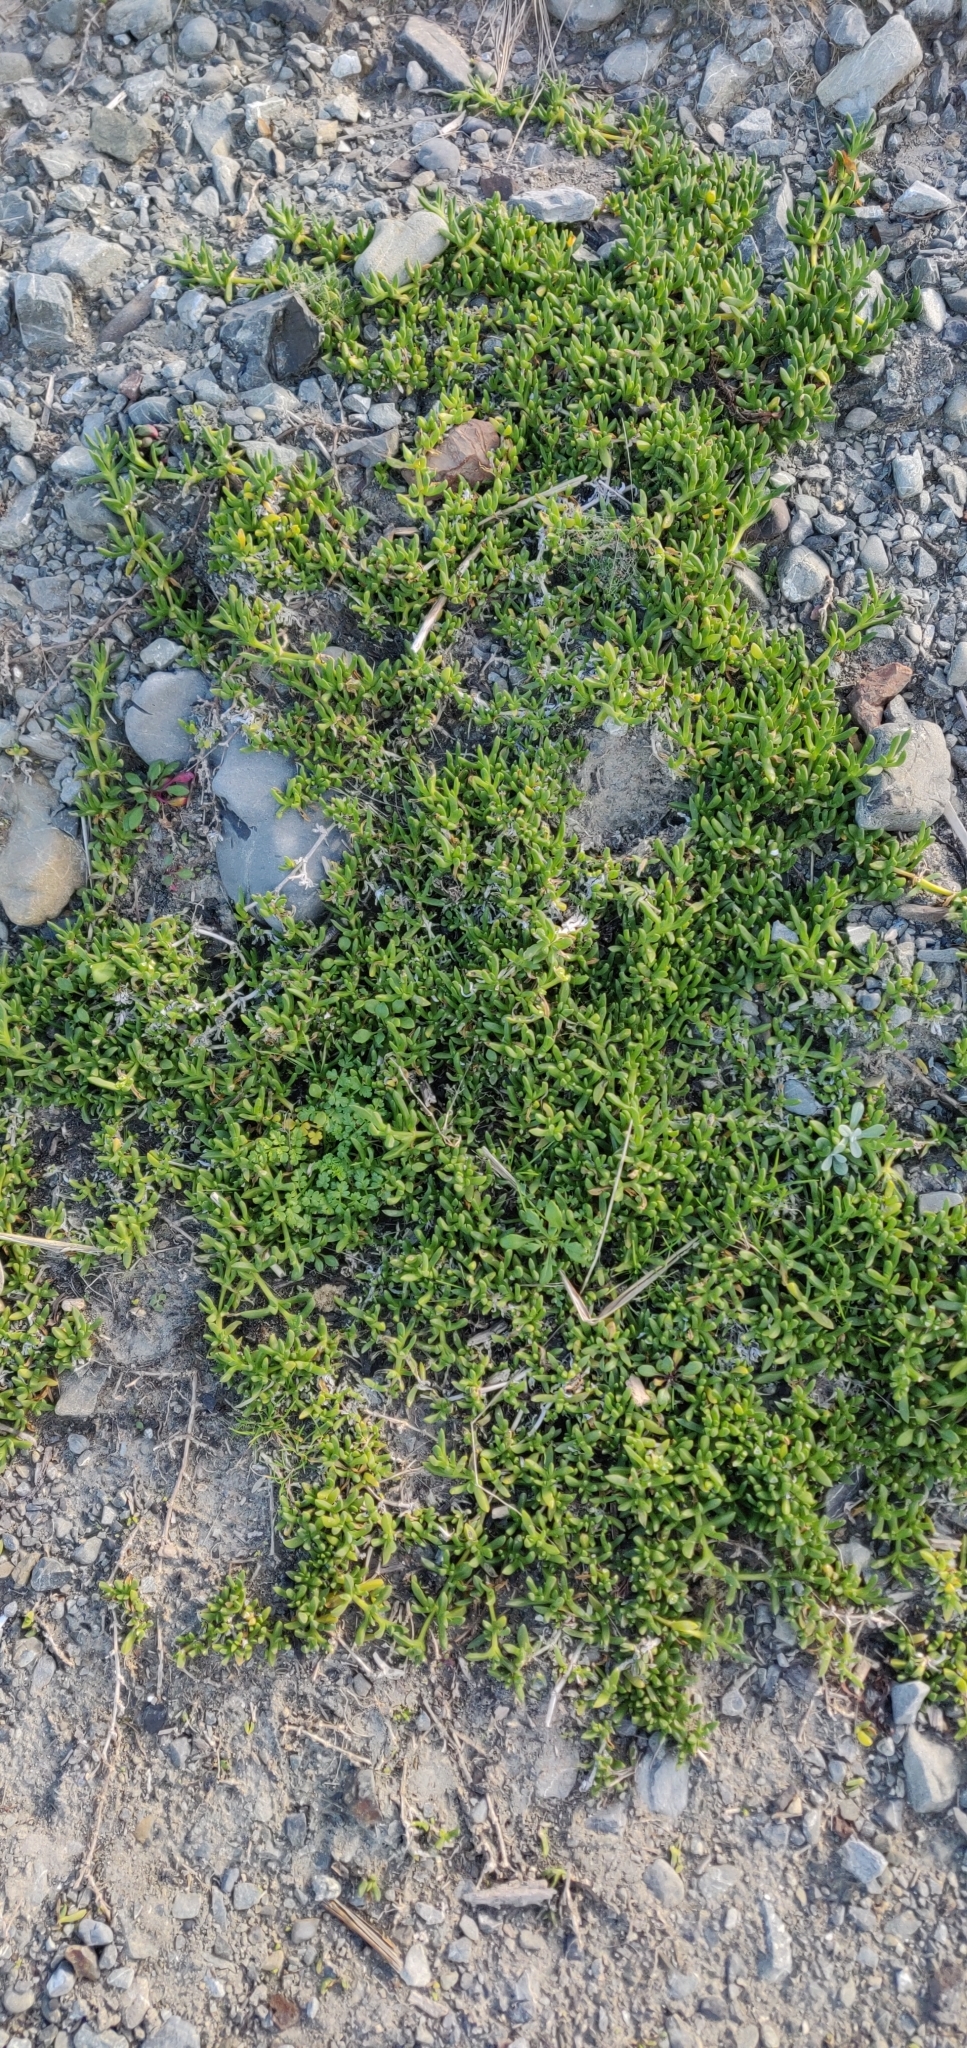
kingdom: Plantae
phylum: Tracheophyta
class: Magnoliopsida
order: Gentianales
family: Rubiaceae
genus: Coprosma
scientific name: Coprosma repens
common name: Tree bedstraw
